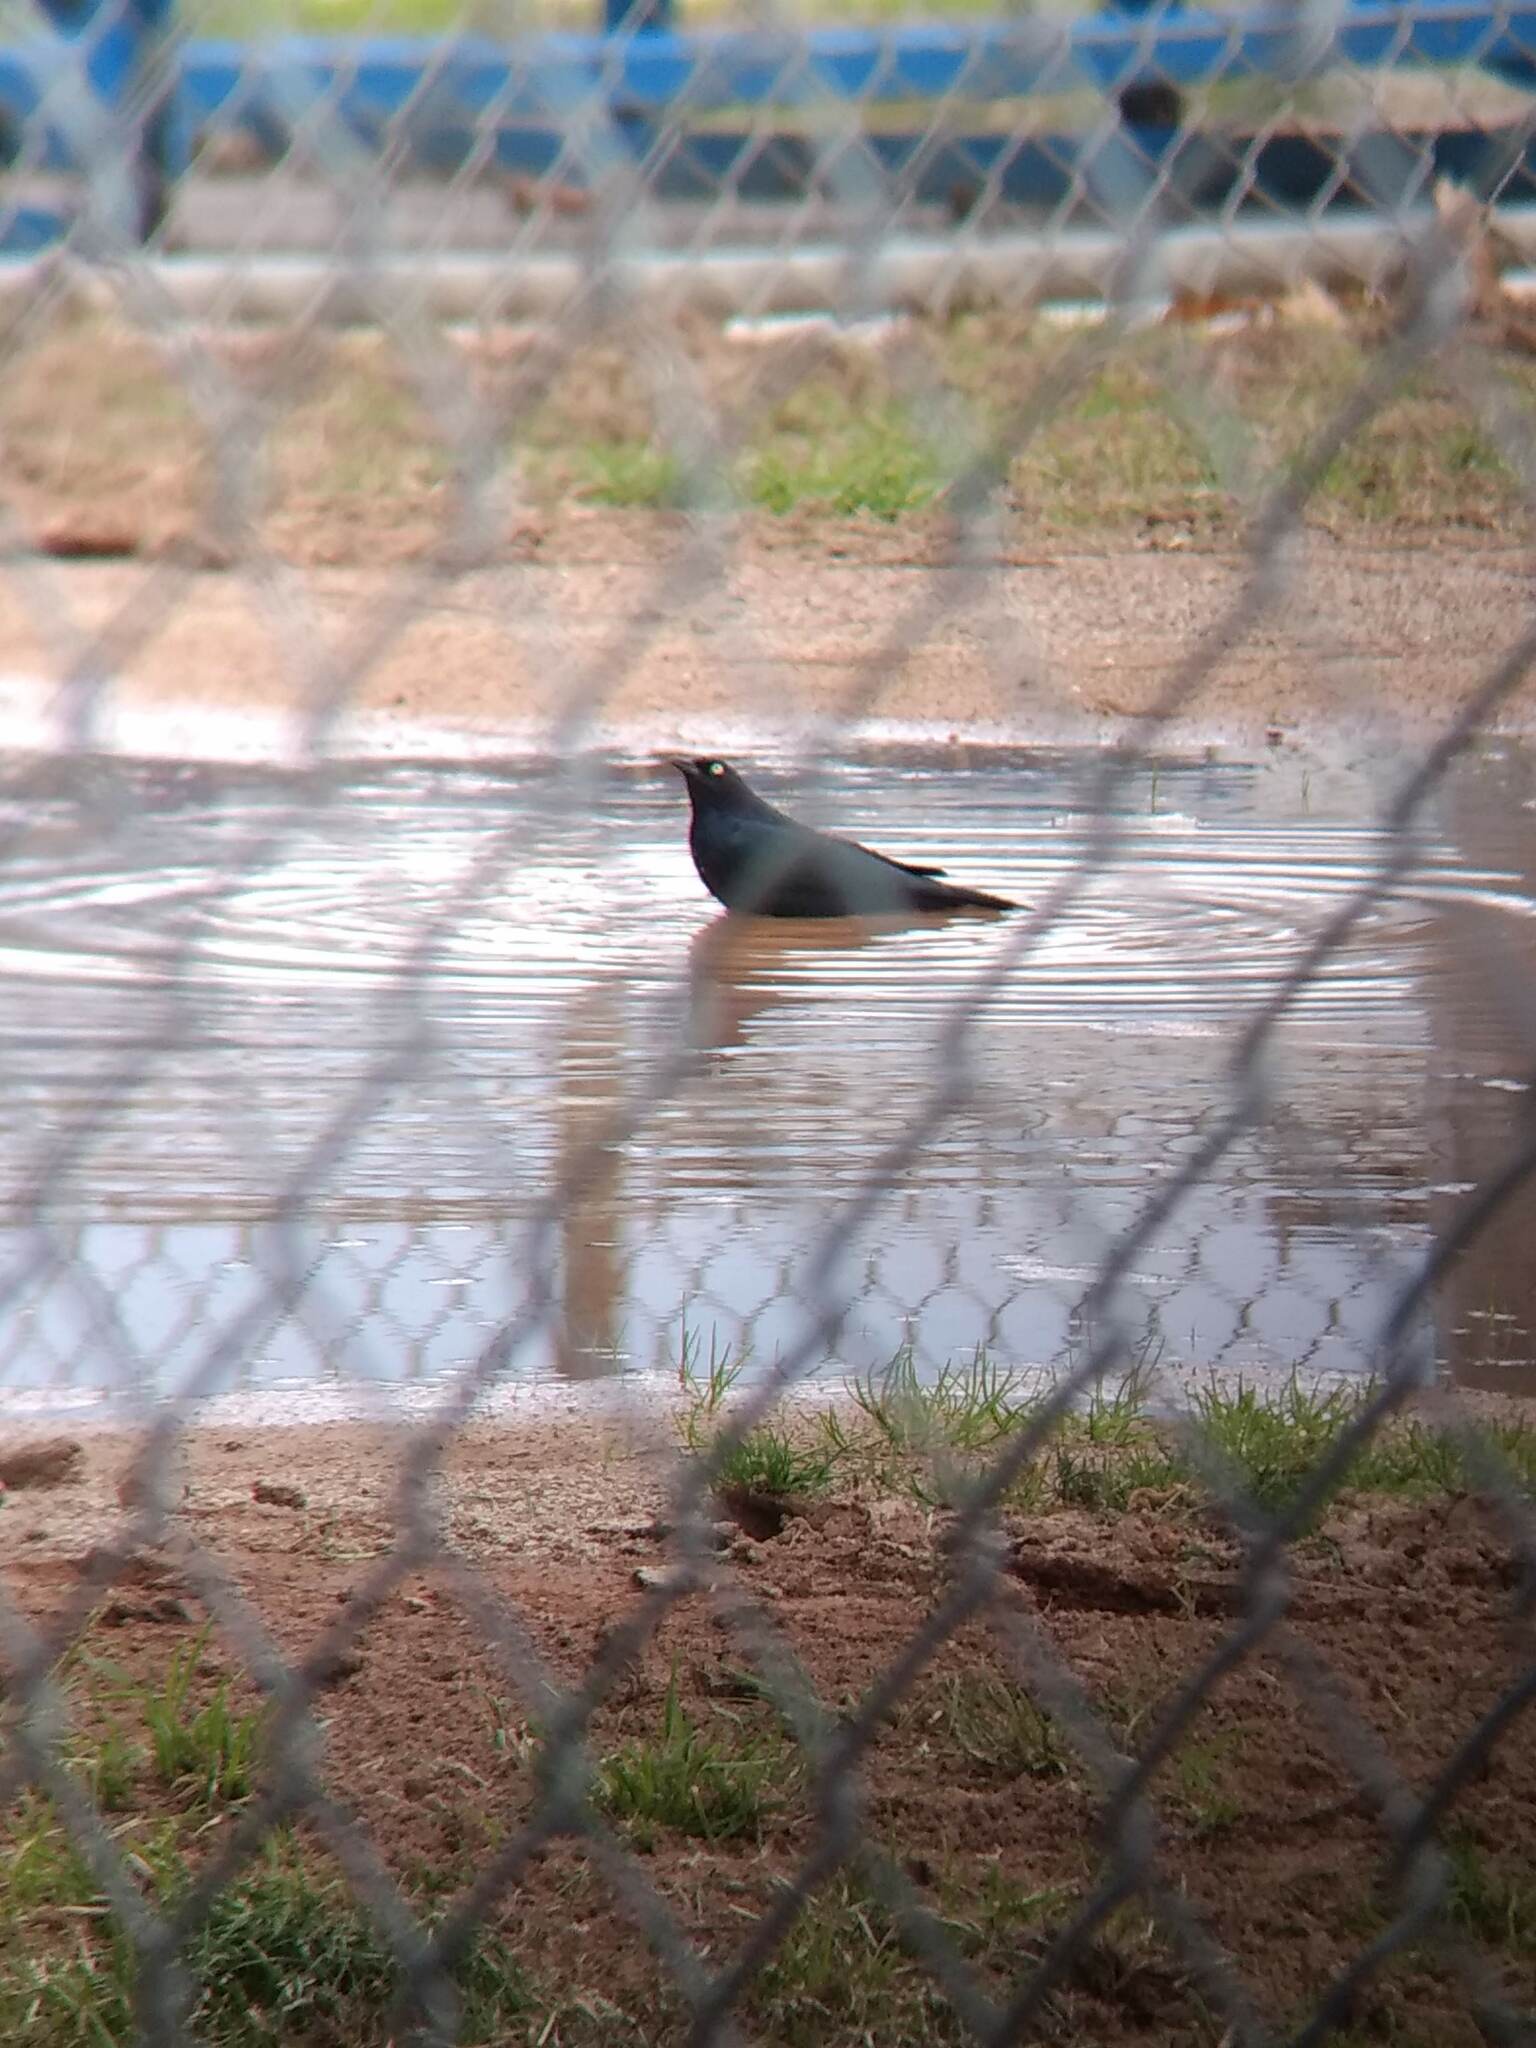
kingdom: Animalia
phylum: Chordata
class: Aves
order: Passeriformes
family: Icteridae
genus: Euphagus
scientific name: Euphagus cyanocephalus
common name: Brewer's blackbird
